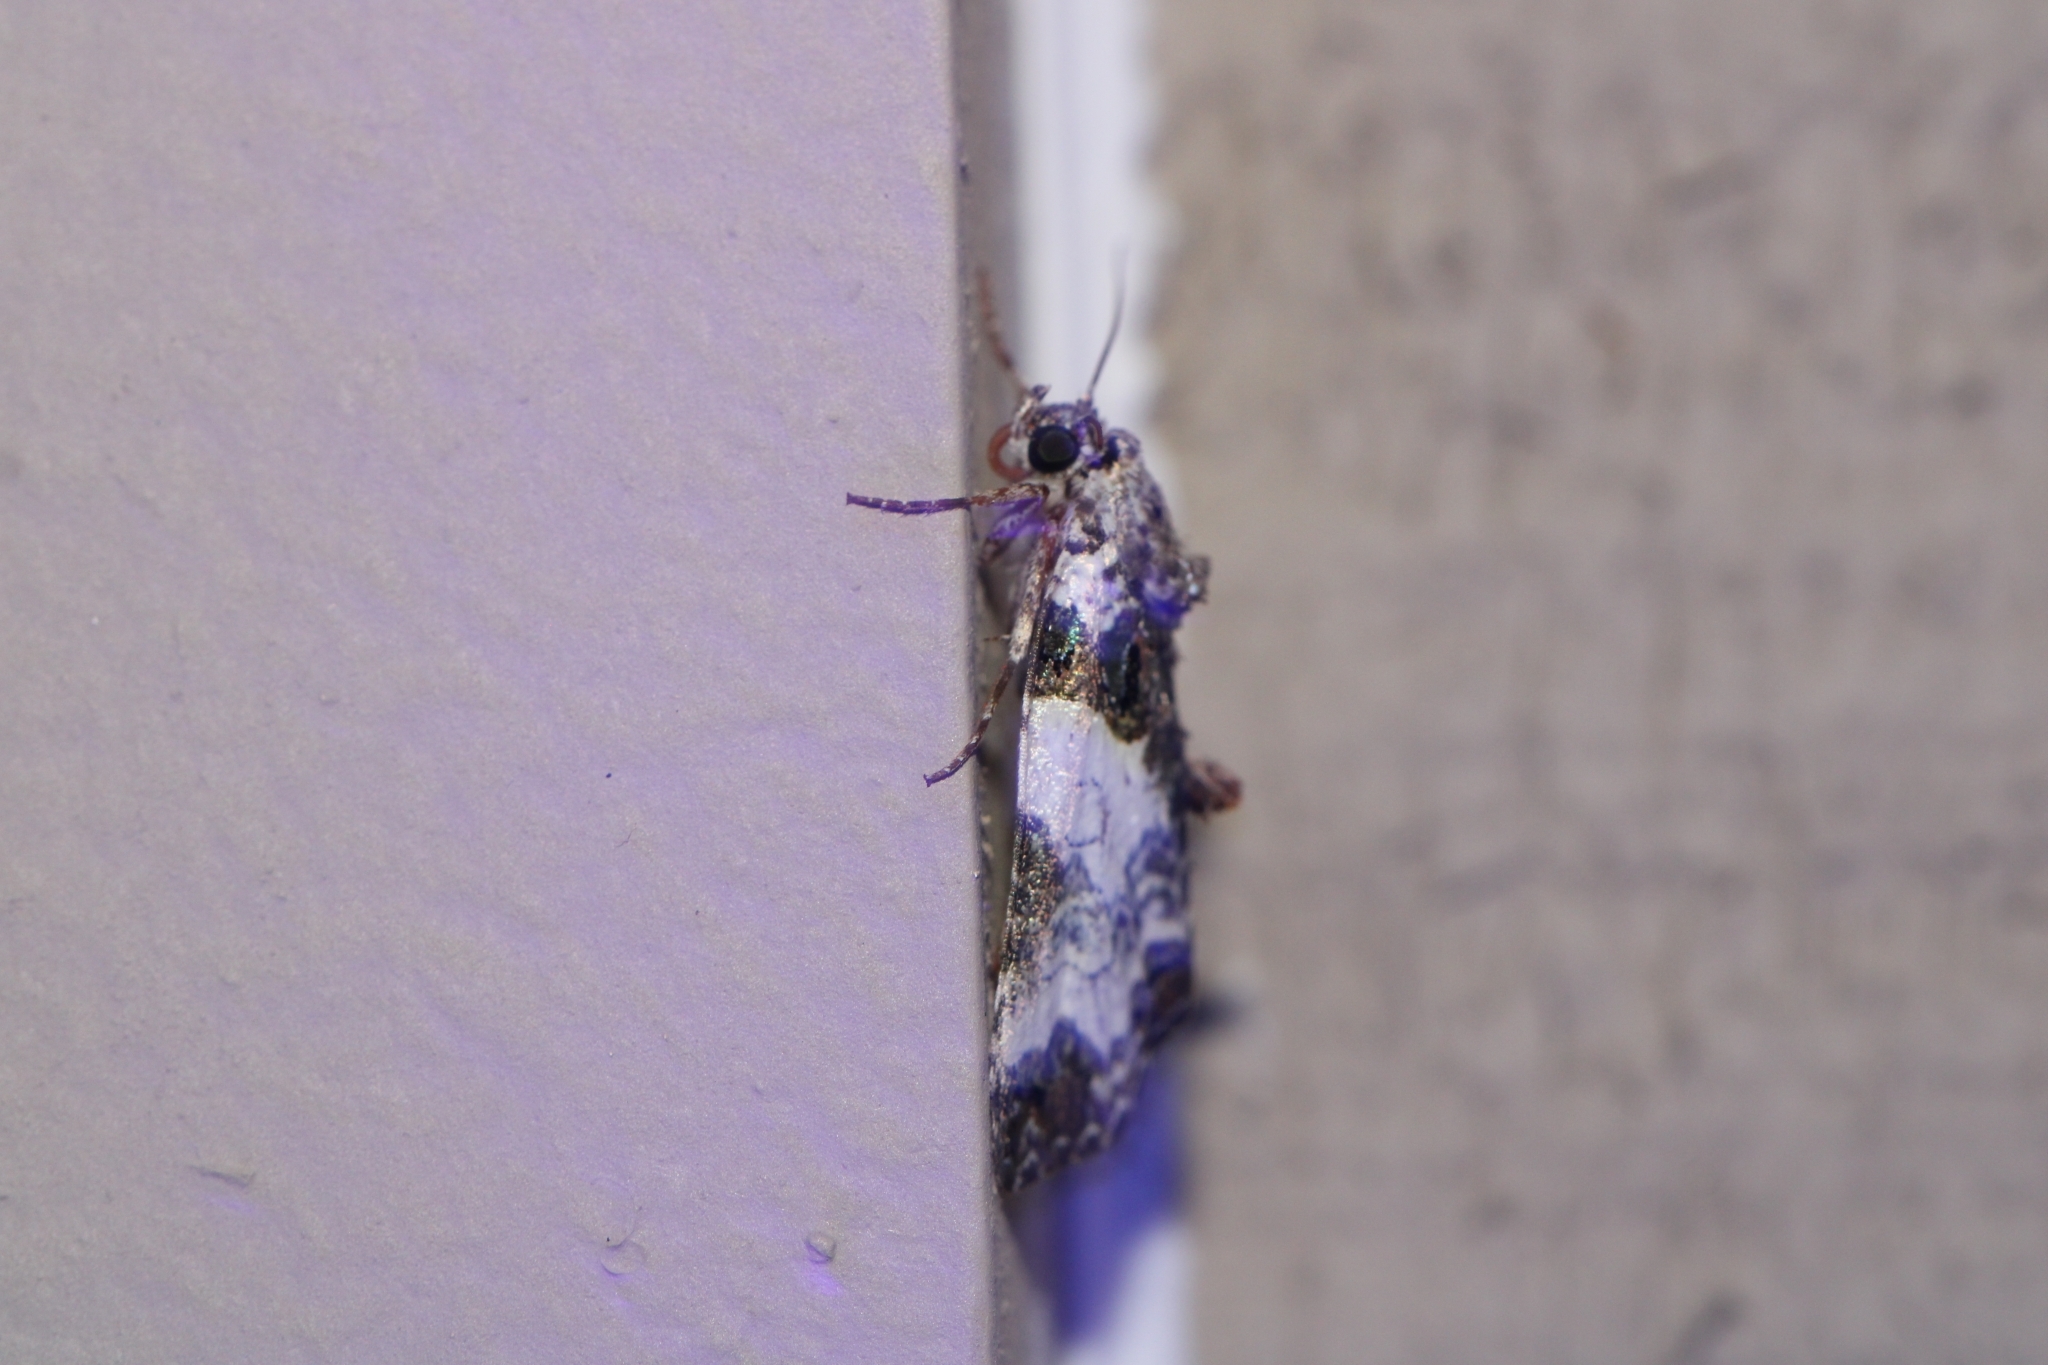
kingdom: Animalia
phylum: Arthropoda
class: Insecta
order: Lepidoptera
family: Noctuidae
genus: Cerma
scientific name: Cerma cerintha
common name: Tufted bird-dropping moth
